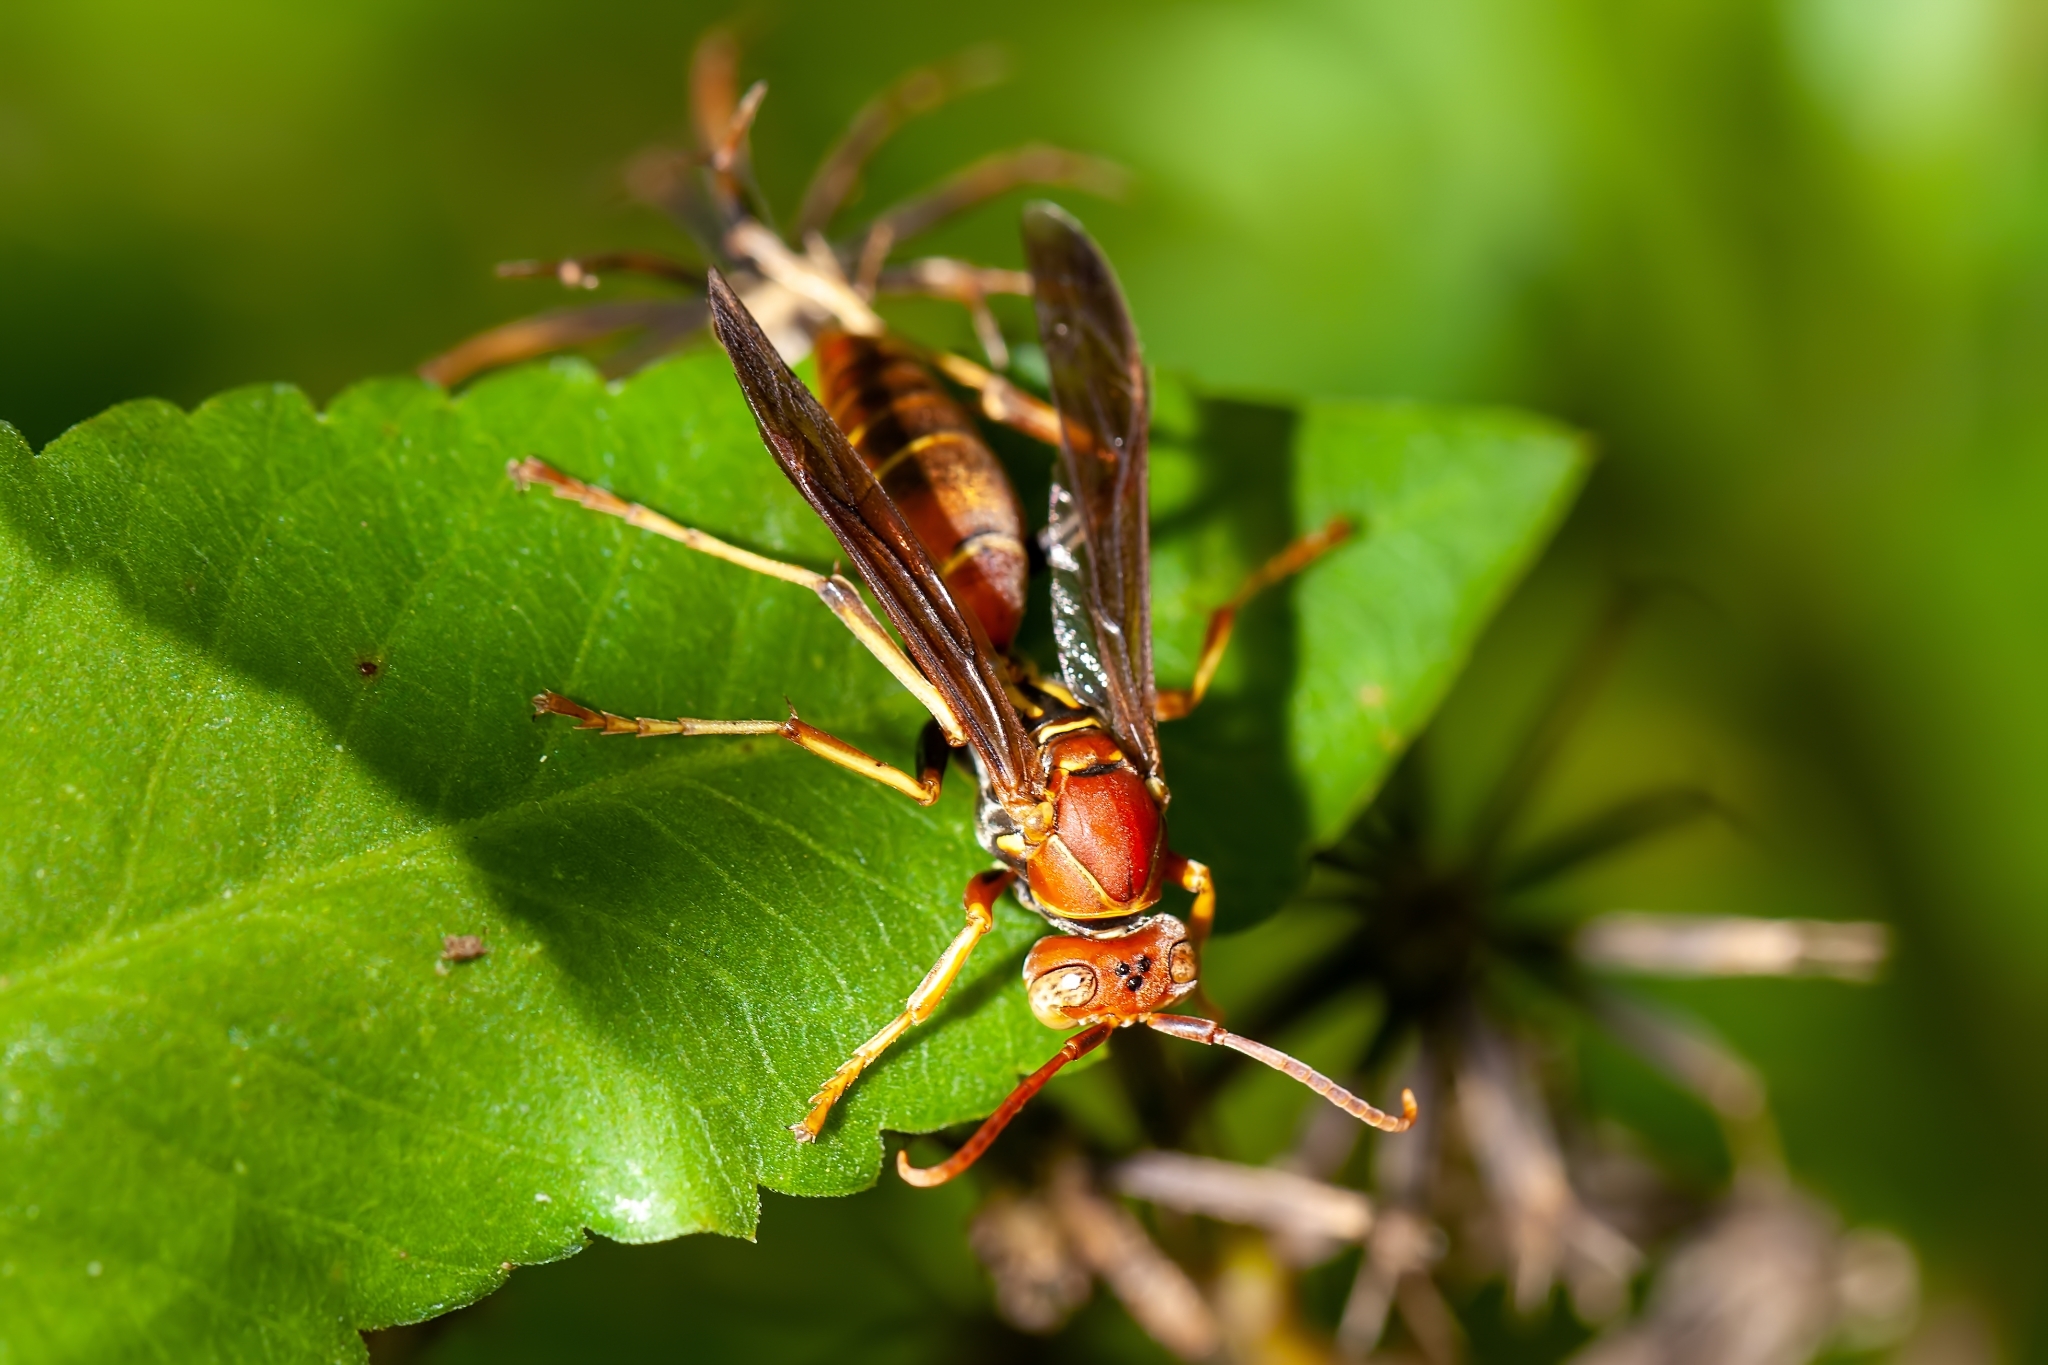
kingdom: Animalia
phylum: Arthropoda
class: Insecta
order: Hymenoptera
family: Vespidae
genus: Fuscopolistes
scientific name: Fuscopolistes
